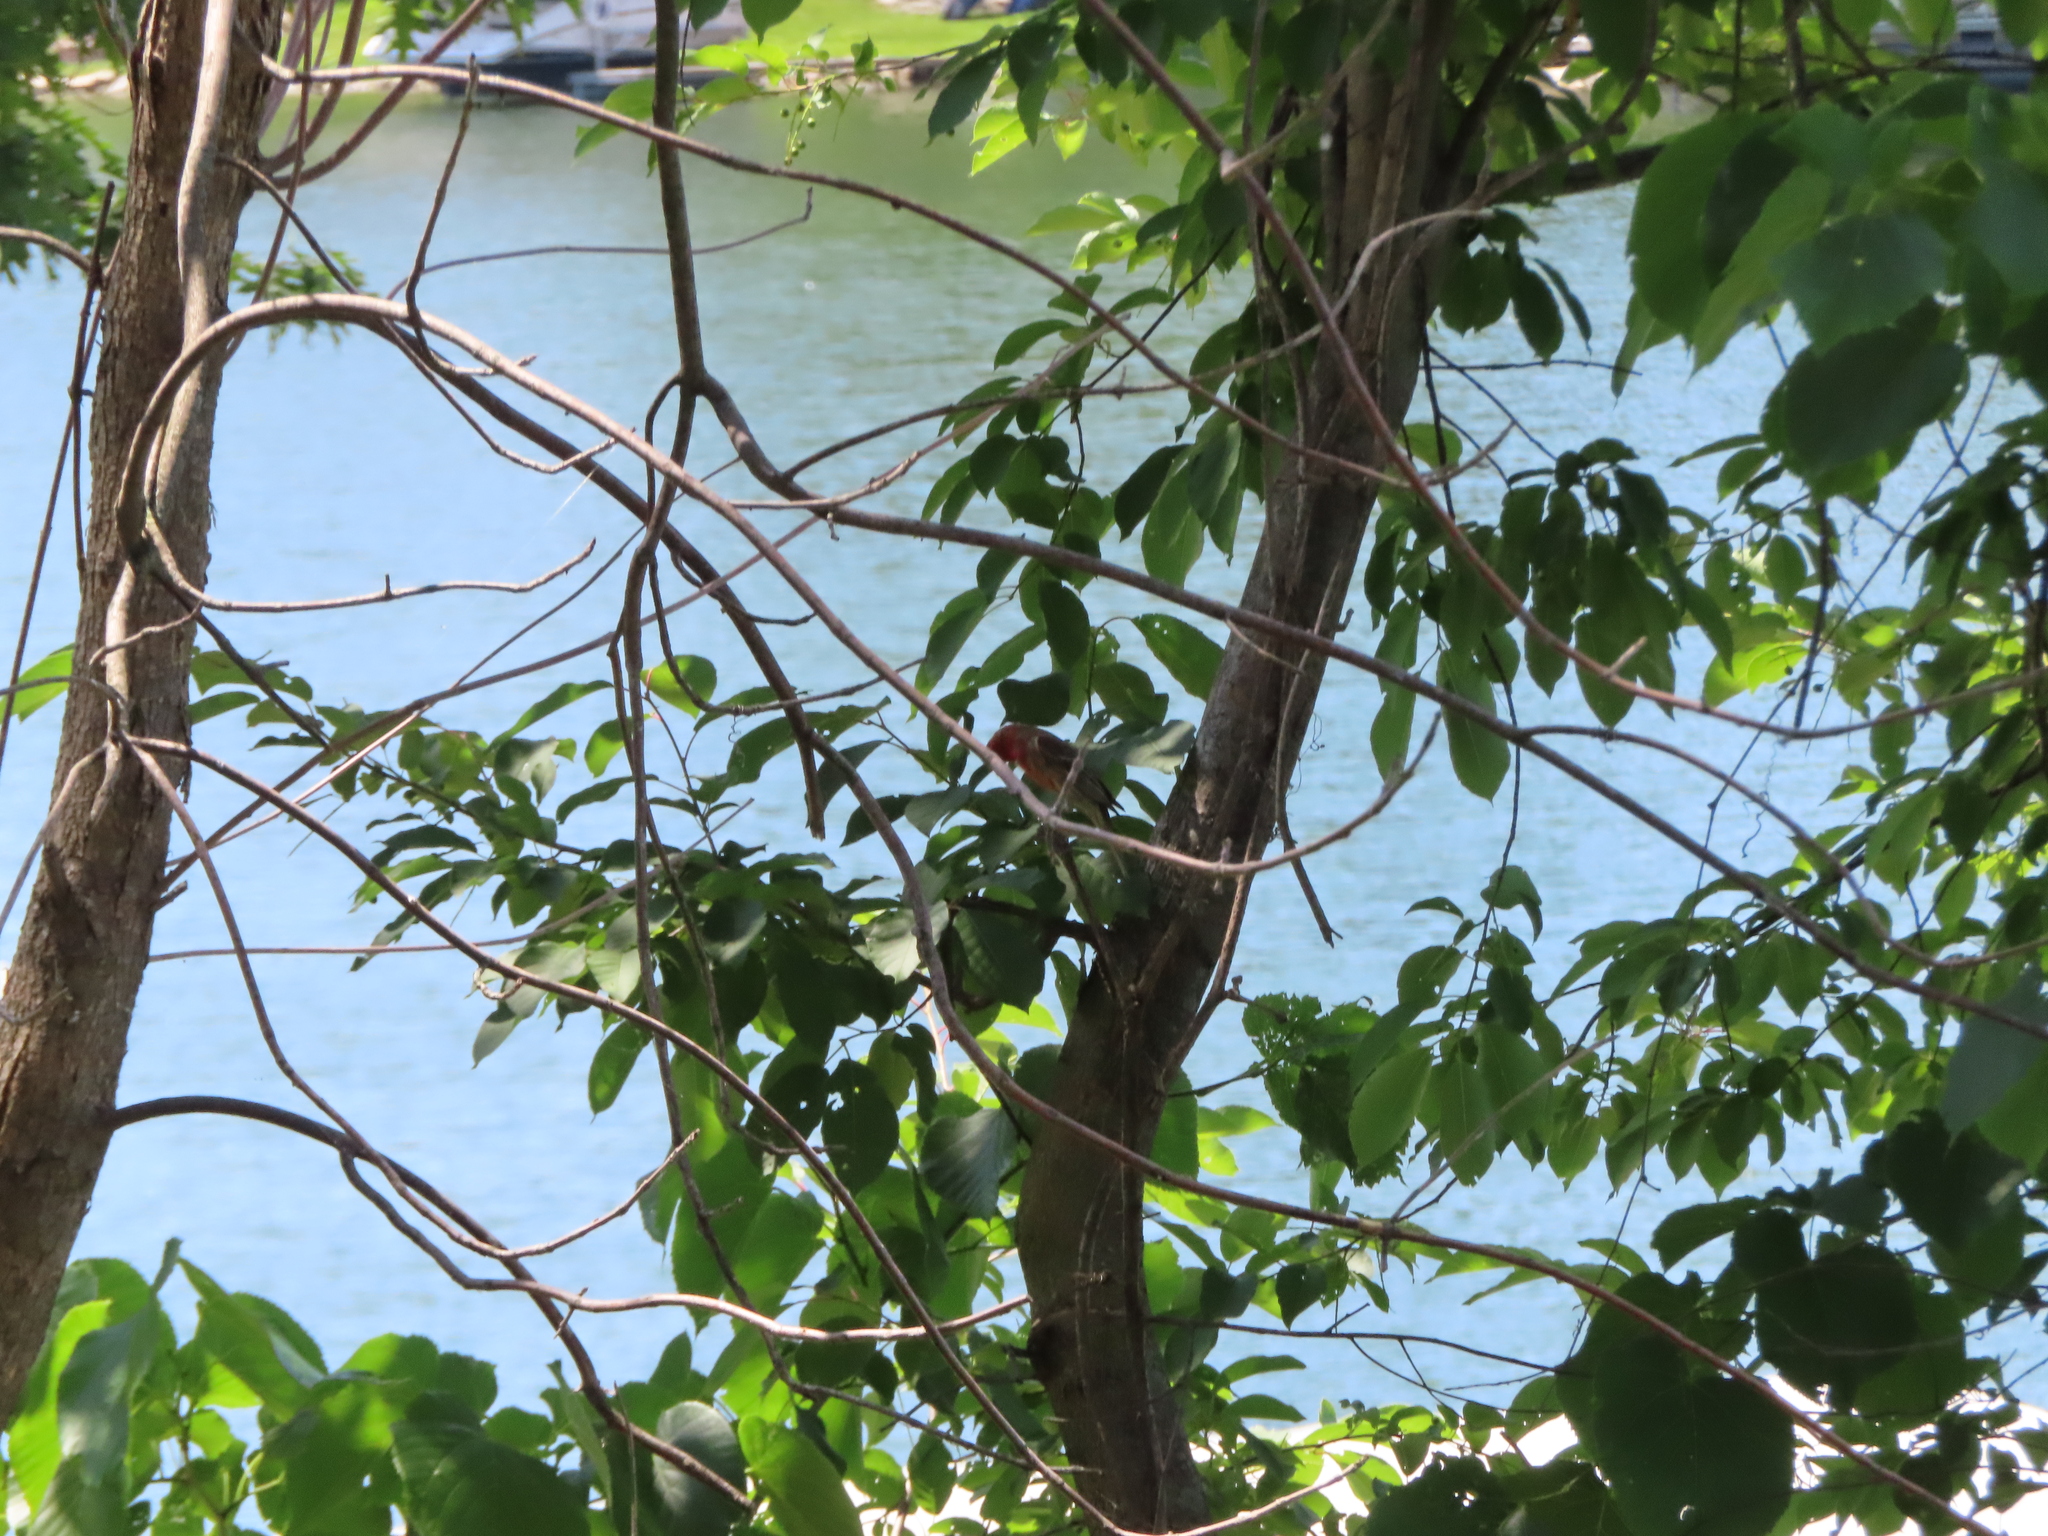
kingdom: Animalia
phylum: Chordata
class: Aves
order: Passeriformes
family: Fringillidae
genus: Haemorhous
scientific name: Haemorhous mexicanus
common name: House finch
